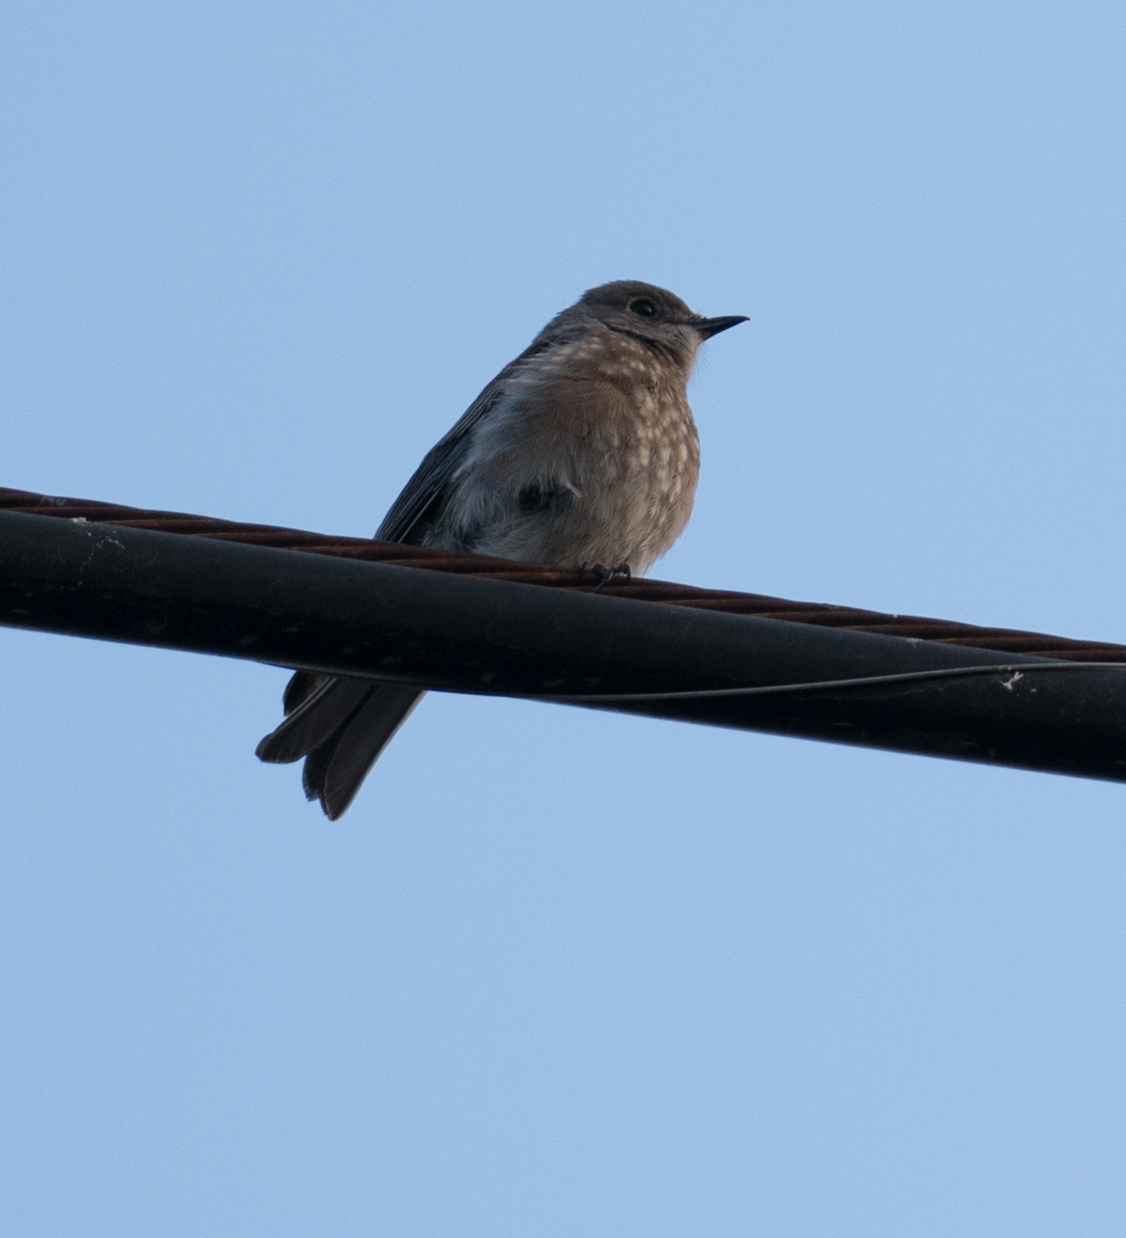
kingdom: Animalia
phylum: Chordata
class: Aves
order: Passeriformes
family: Turdidae
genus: Sialia
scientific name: Sialia mexicana
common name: Western bluebird
